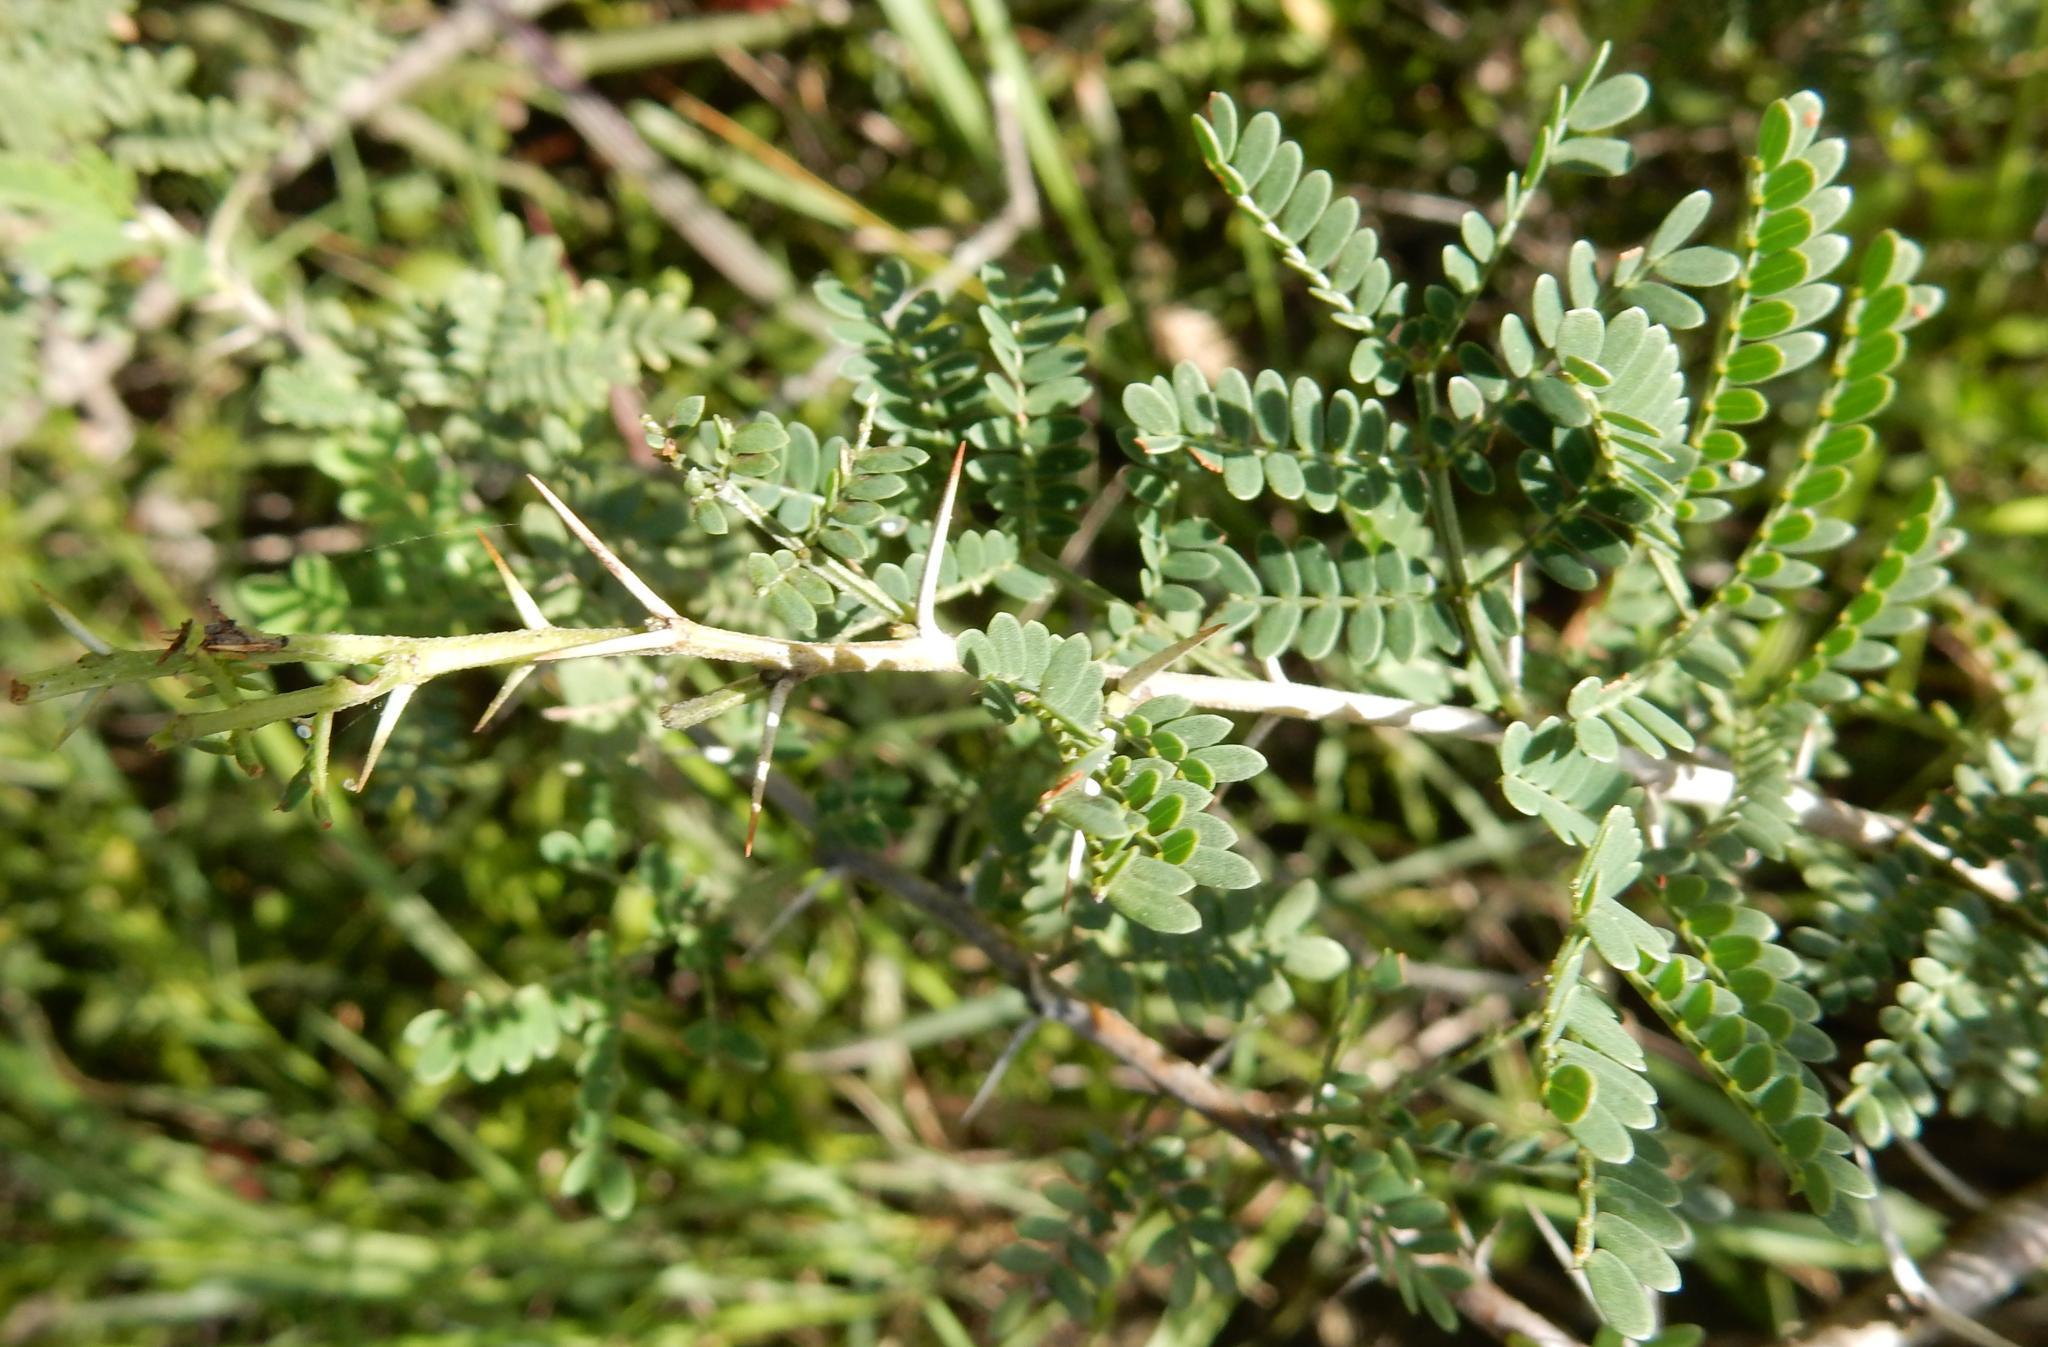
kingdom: Plantae
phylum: Tracheophyta
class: Magnoliopsida
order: Fabales
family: Fabaceae
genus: Vachellia
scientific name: Vachellia karroo
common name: Sweet thorn
